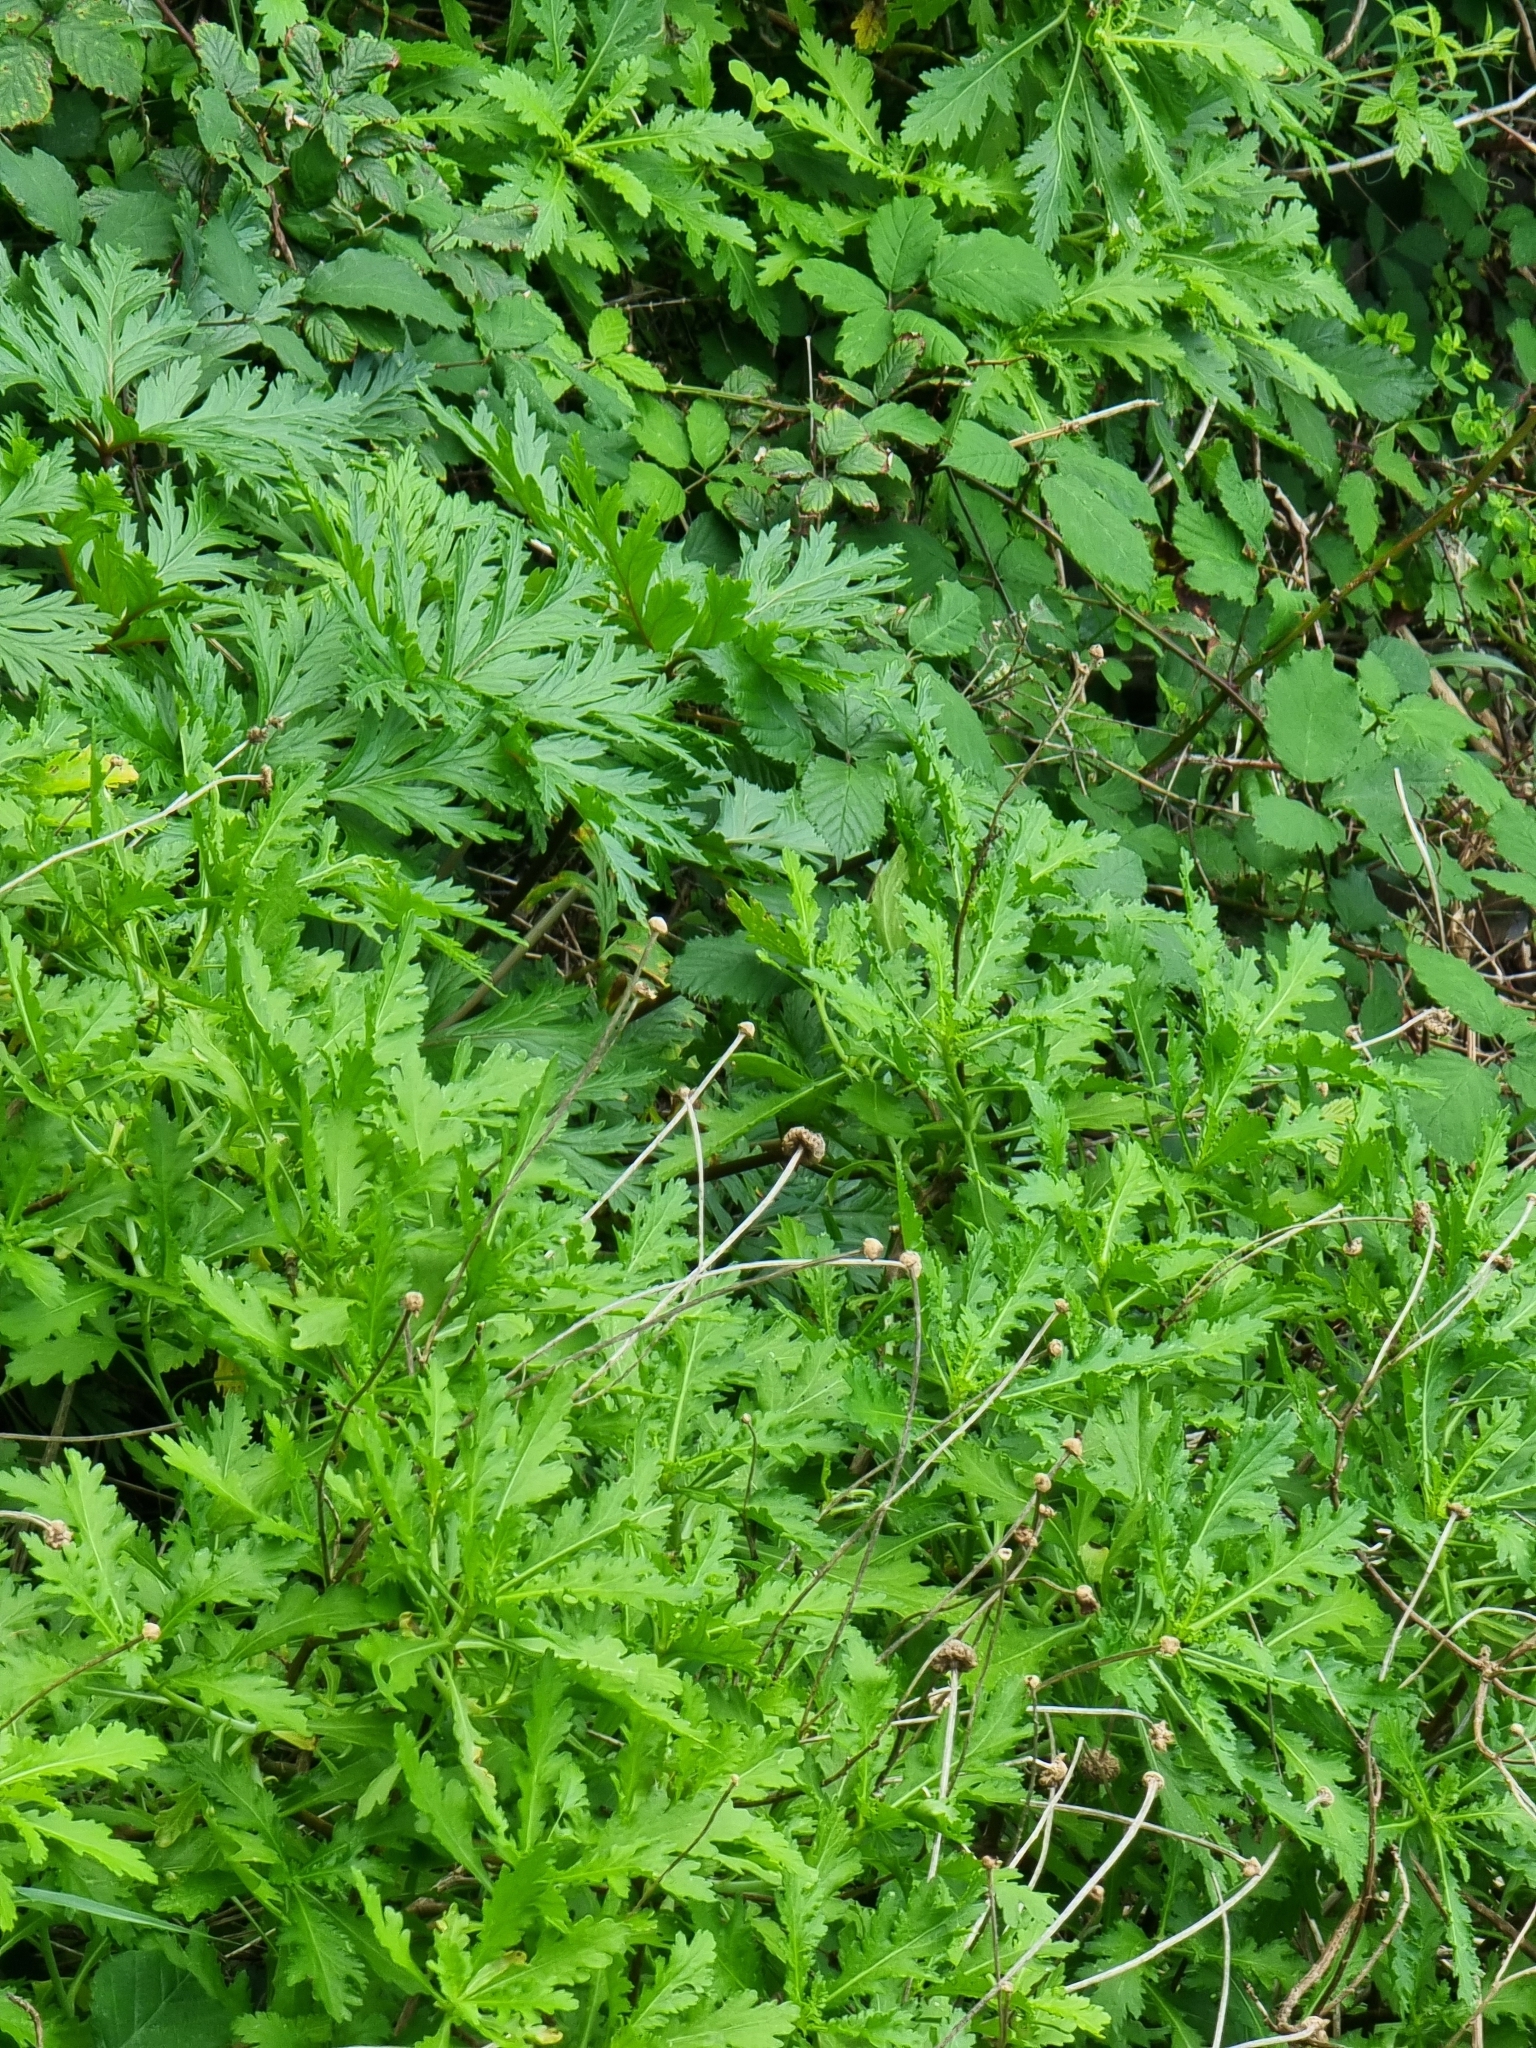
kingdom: Plantae
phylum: Tracheophyta
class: Magnoliopsida
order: Asterales
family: Asteraceae
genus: Argyranthemum
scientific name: Argyranthemum pinnatifidum
